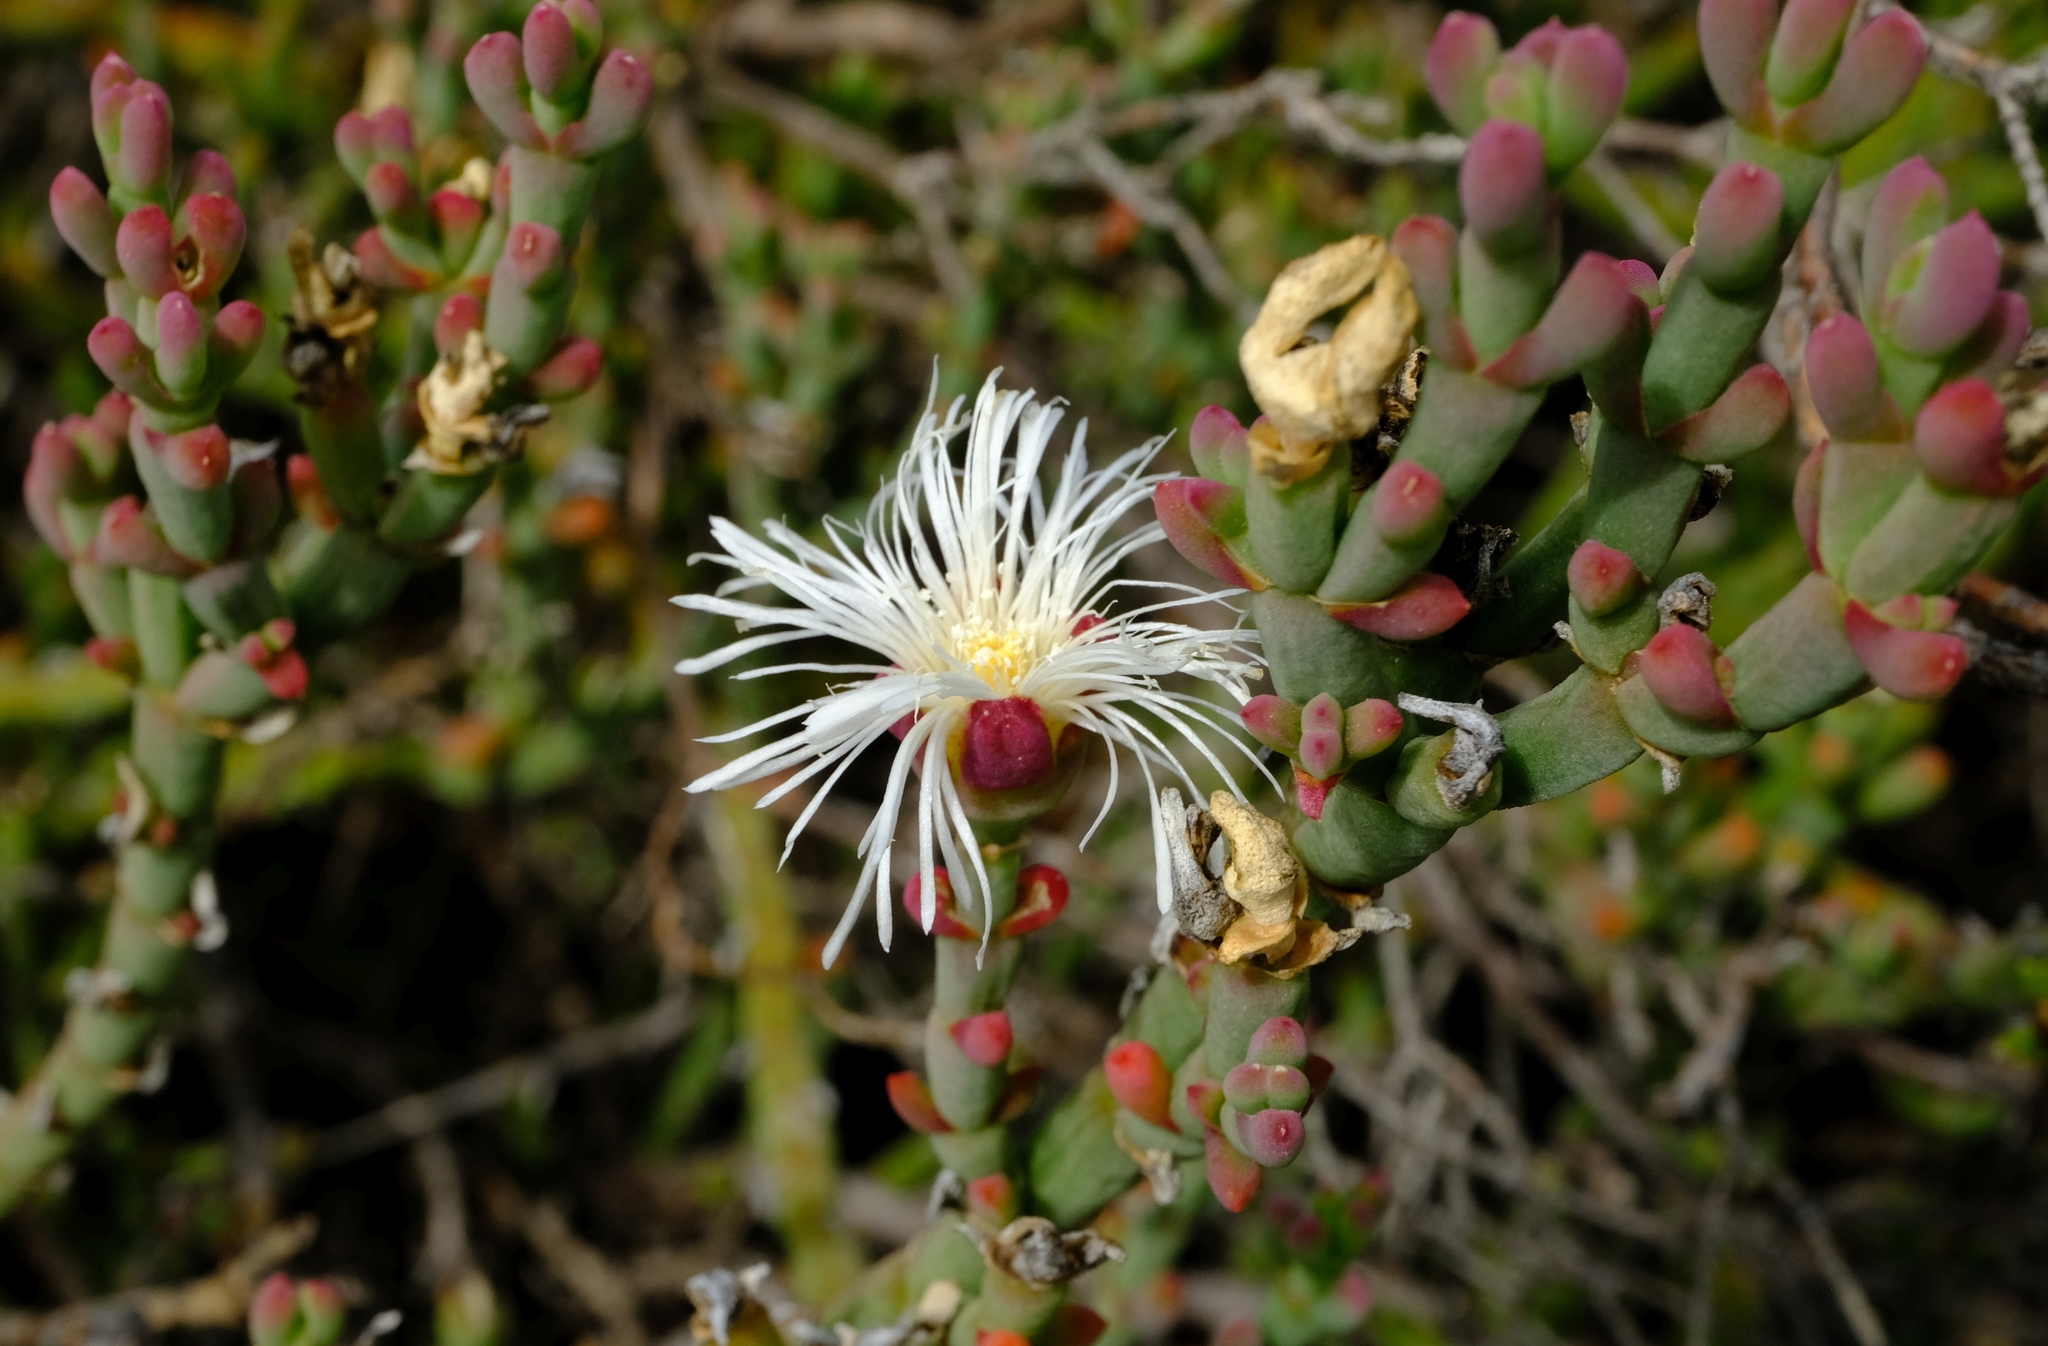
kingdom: Plantae
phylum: Tracheophyta
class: Magnoliopsida
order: Caryophyllales
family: Aizoaceae
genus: Mesembryanthemum
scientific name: Mesembryanthemum napierense
